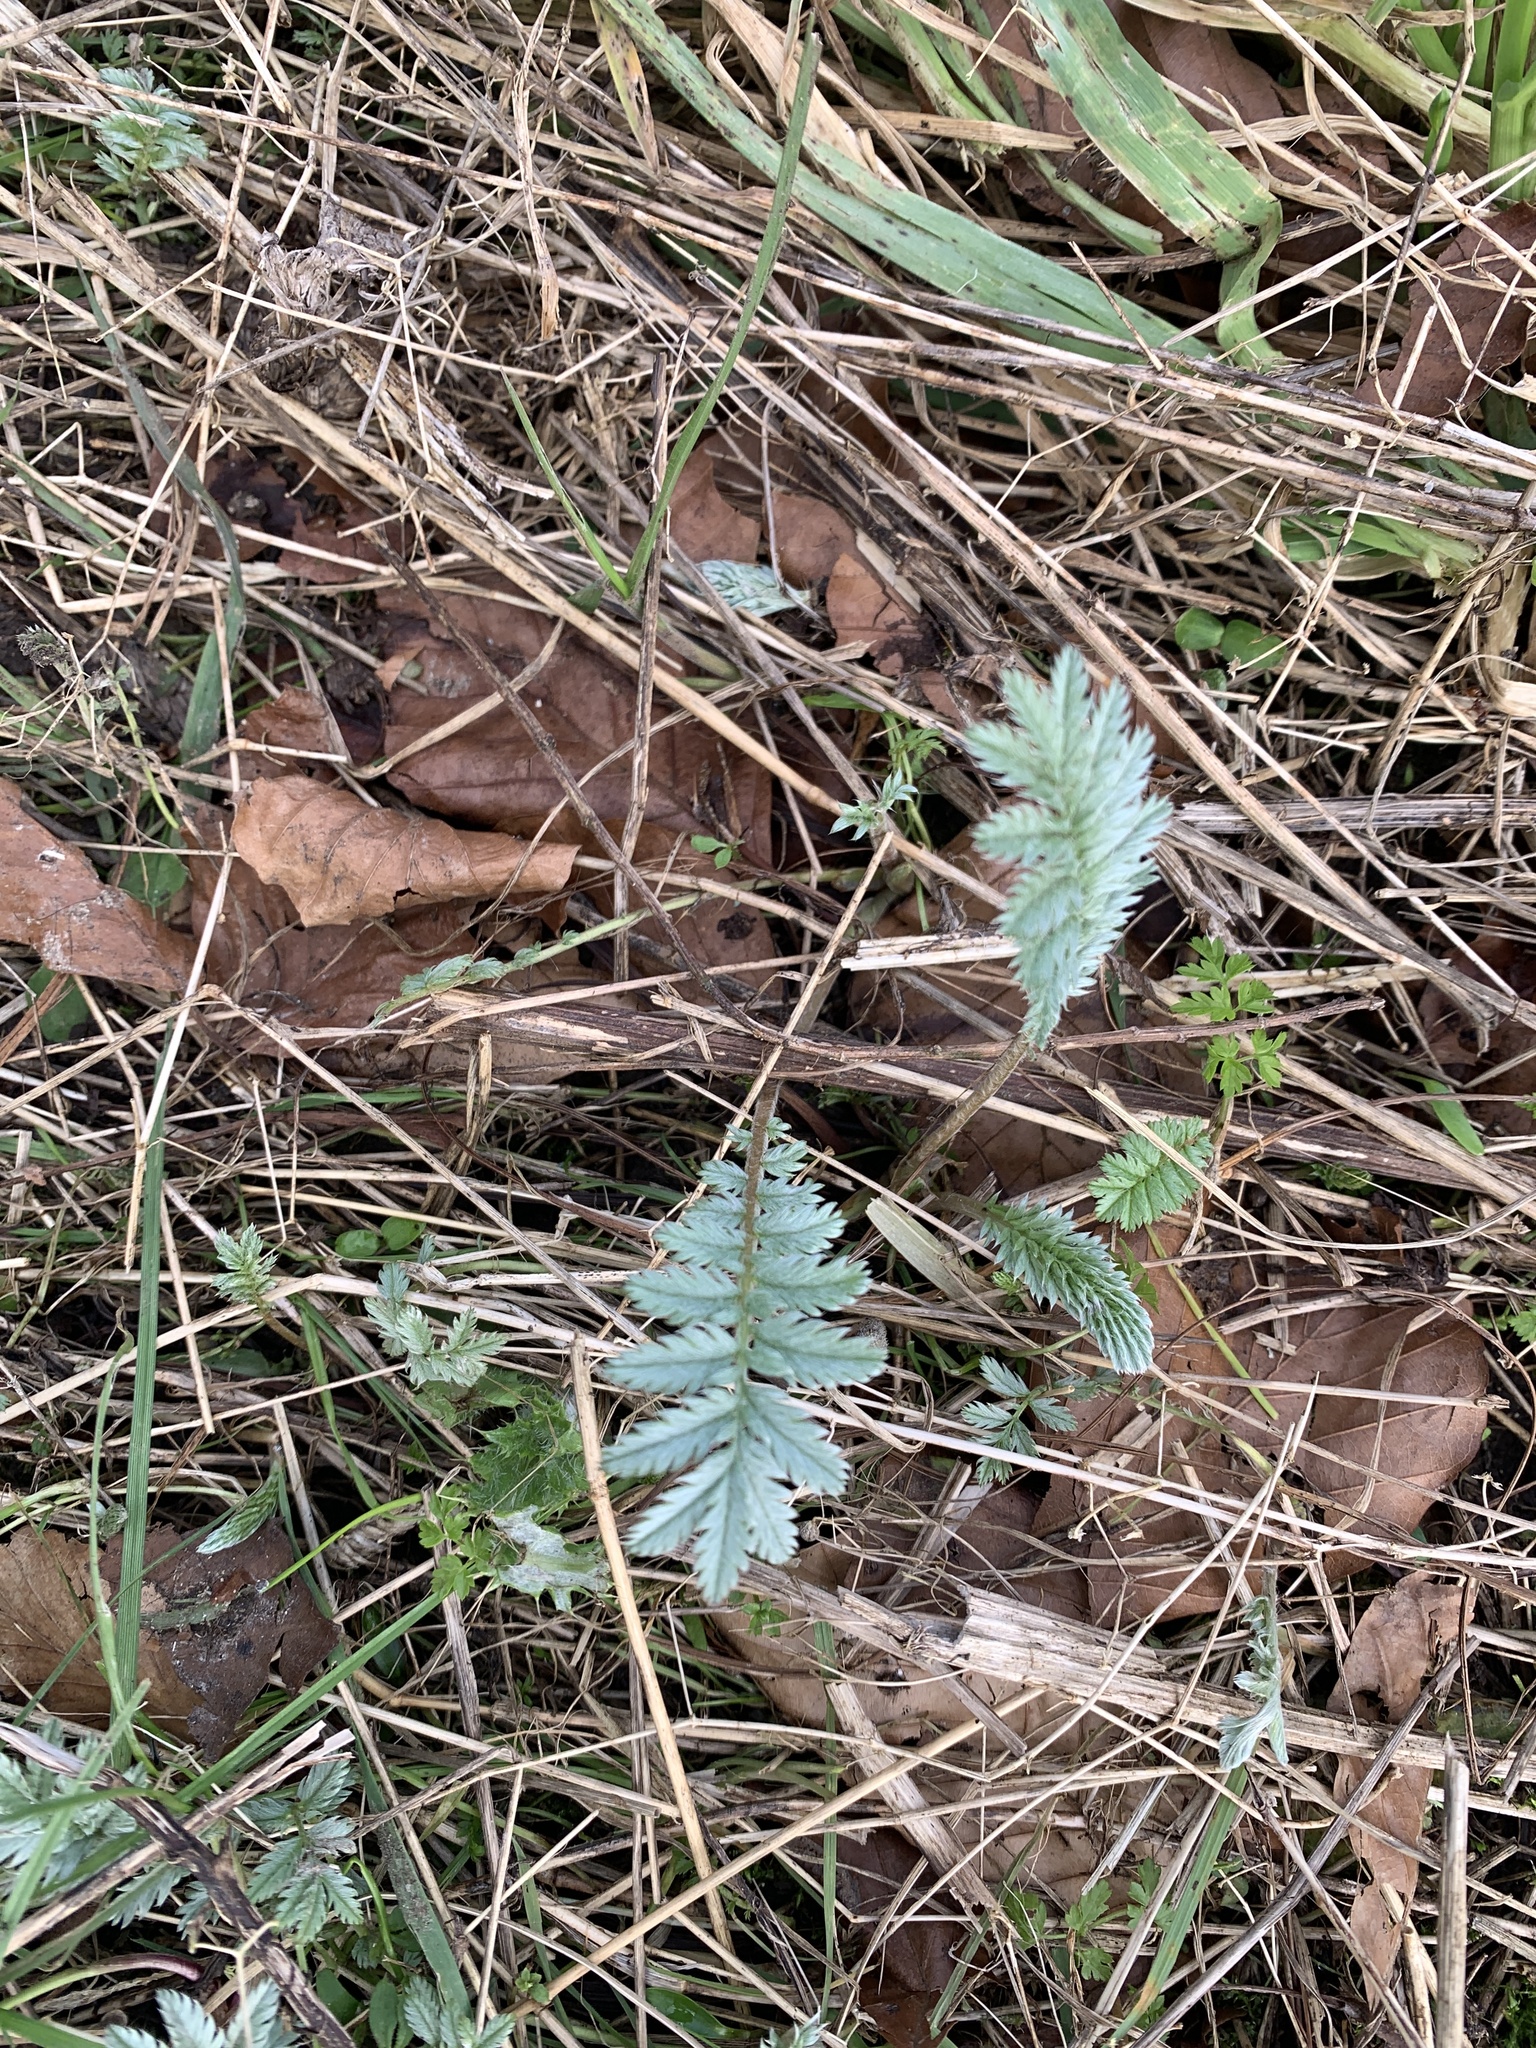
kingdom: Plantae
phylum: Tracheophyta
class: Magnoliopsida
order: Rosales
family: Rosaceae
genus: Argentina
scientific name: Argentina anserina
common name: Common silverweed
